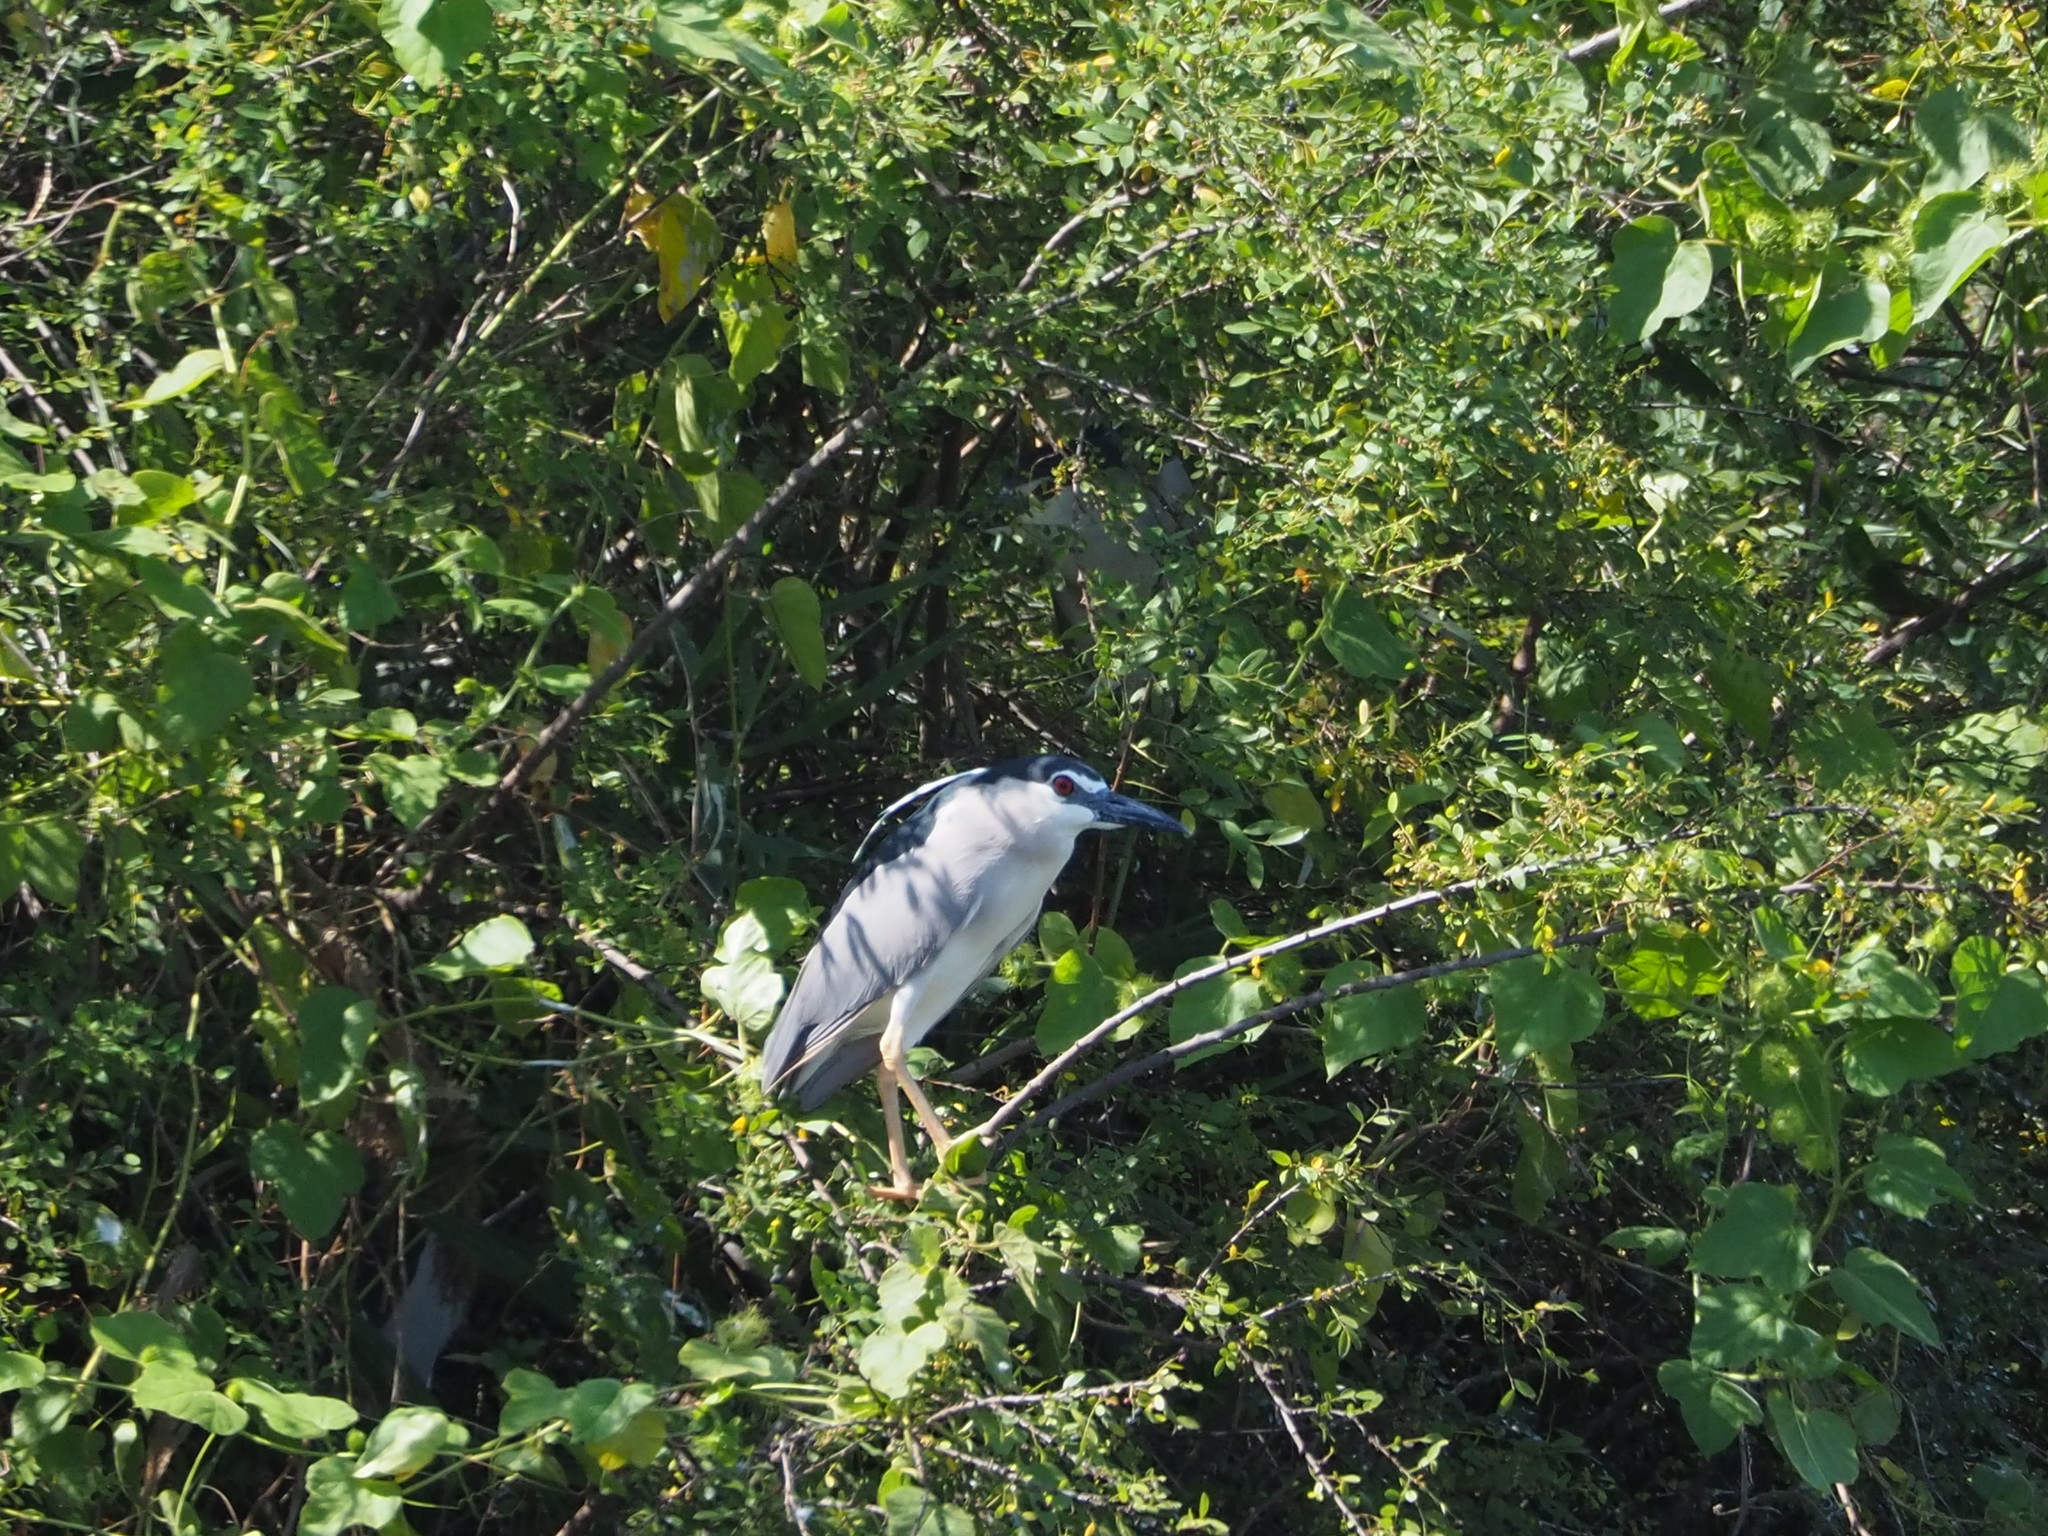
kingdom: Animalia
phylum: Chordata
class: Aves
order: Pelecaniformes
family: Ardeidae
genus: Nycticorax
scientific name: Nycticorax nycticorax
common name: Black-crowned night heron
